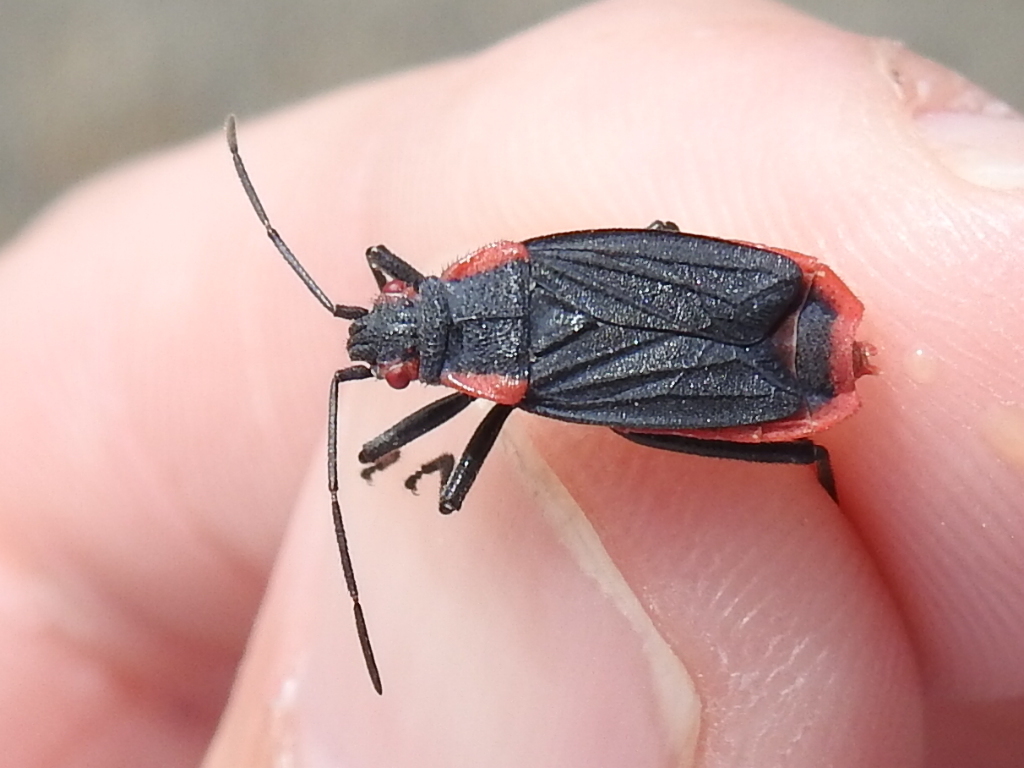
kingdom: Animalia
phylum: Arthropoda
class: Insecta
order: Hemiptera
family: Rhopalidae
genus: Jadera
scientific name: Jadera haematoloma
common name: Red-shouldered bug
